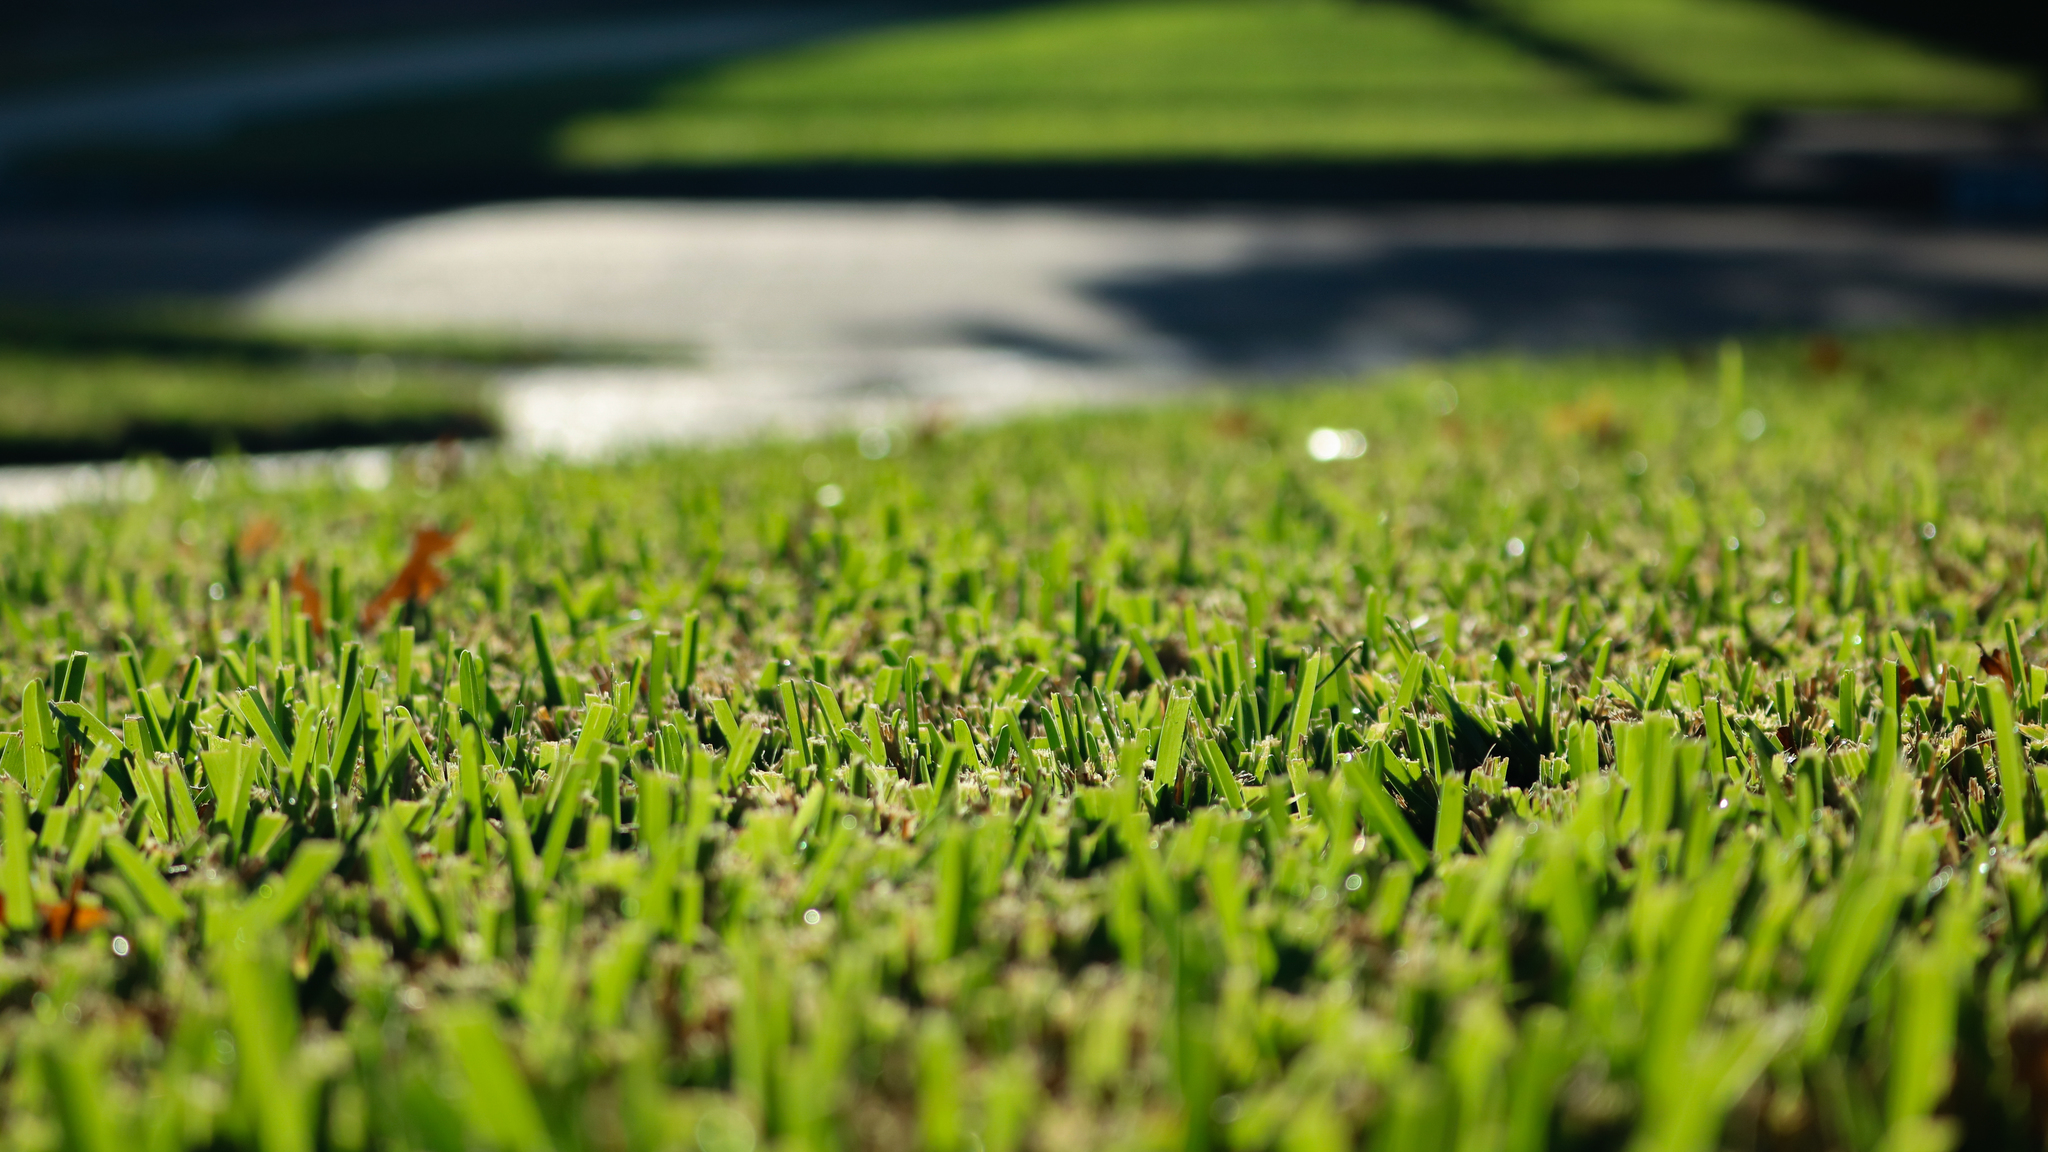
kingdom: Plantae
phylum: Tracheophyta
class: Liliopsida
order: Poales
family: Poaceae
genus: Stenotaphrum
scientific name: Stenotaphrum secundatum
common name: St. augustine grass
